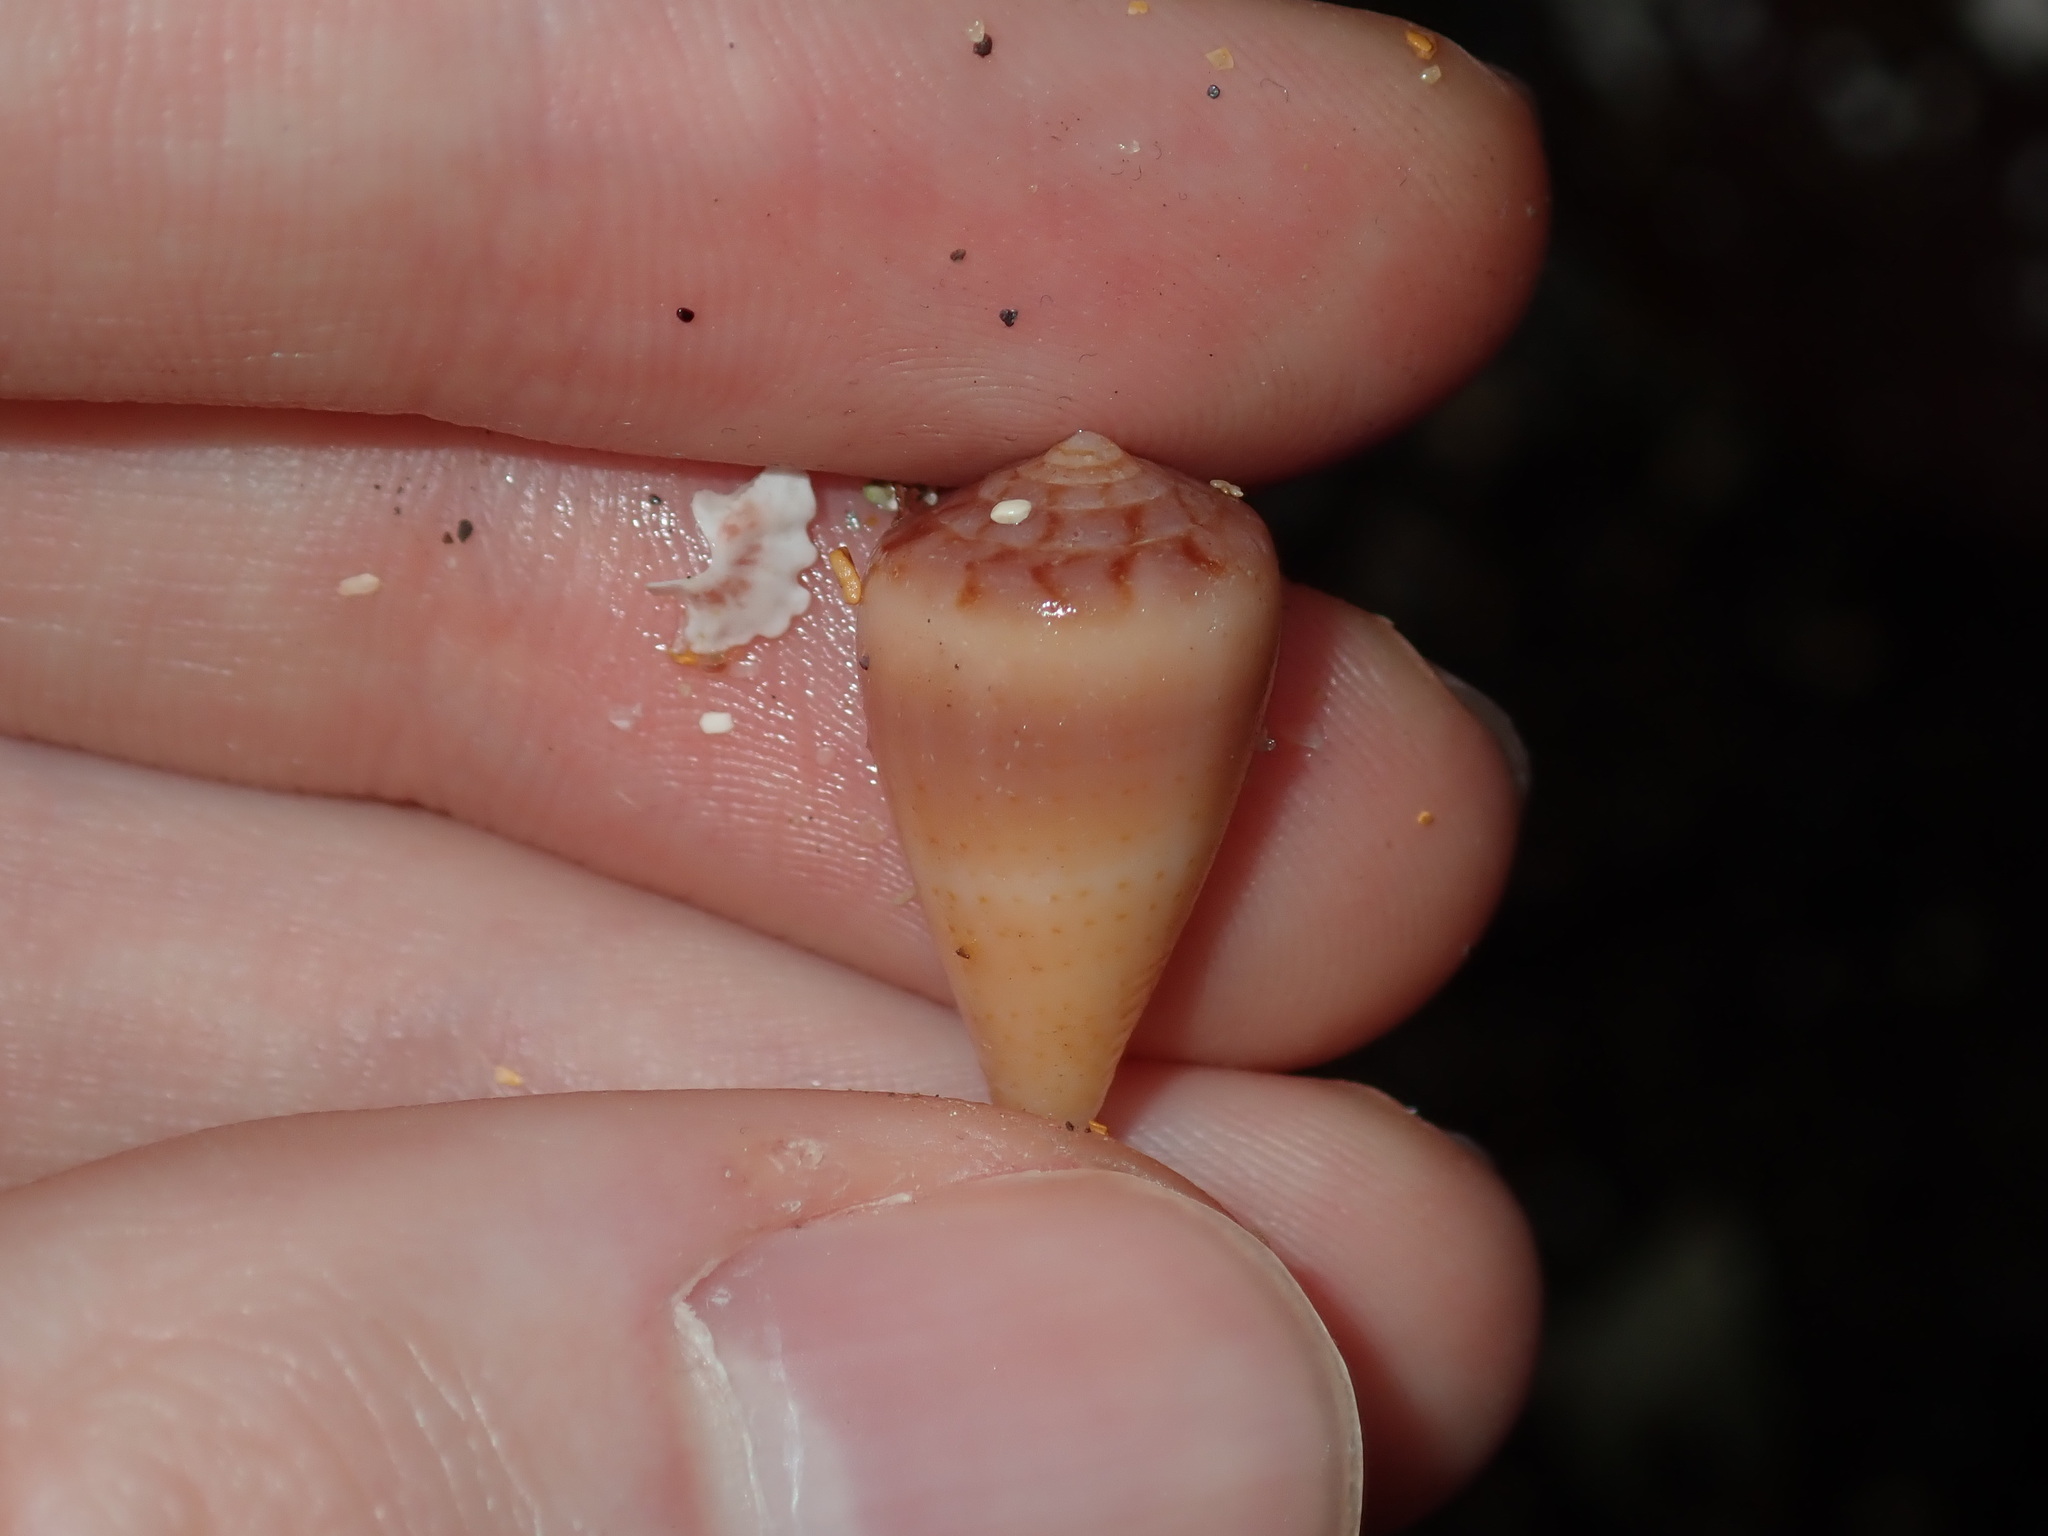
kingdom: Animalia
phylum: Mollusca
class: Gastropoda
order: Neogastropoda
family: Conidae
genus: Conus
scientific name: Conus anemone
